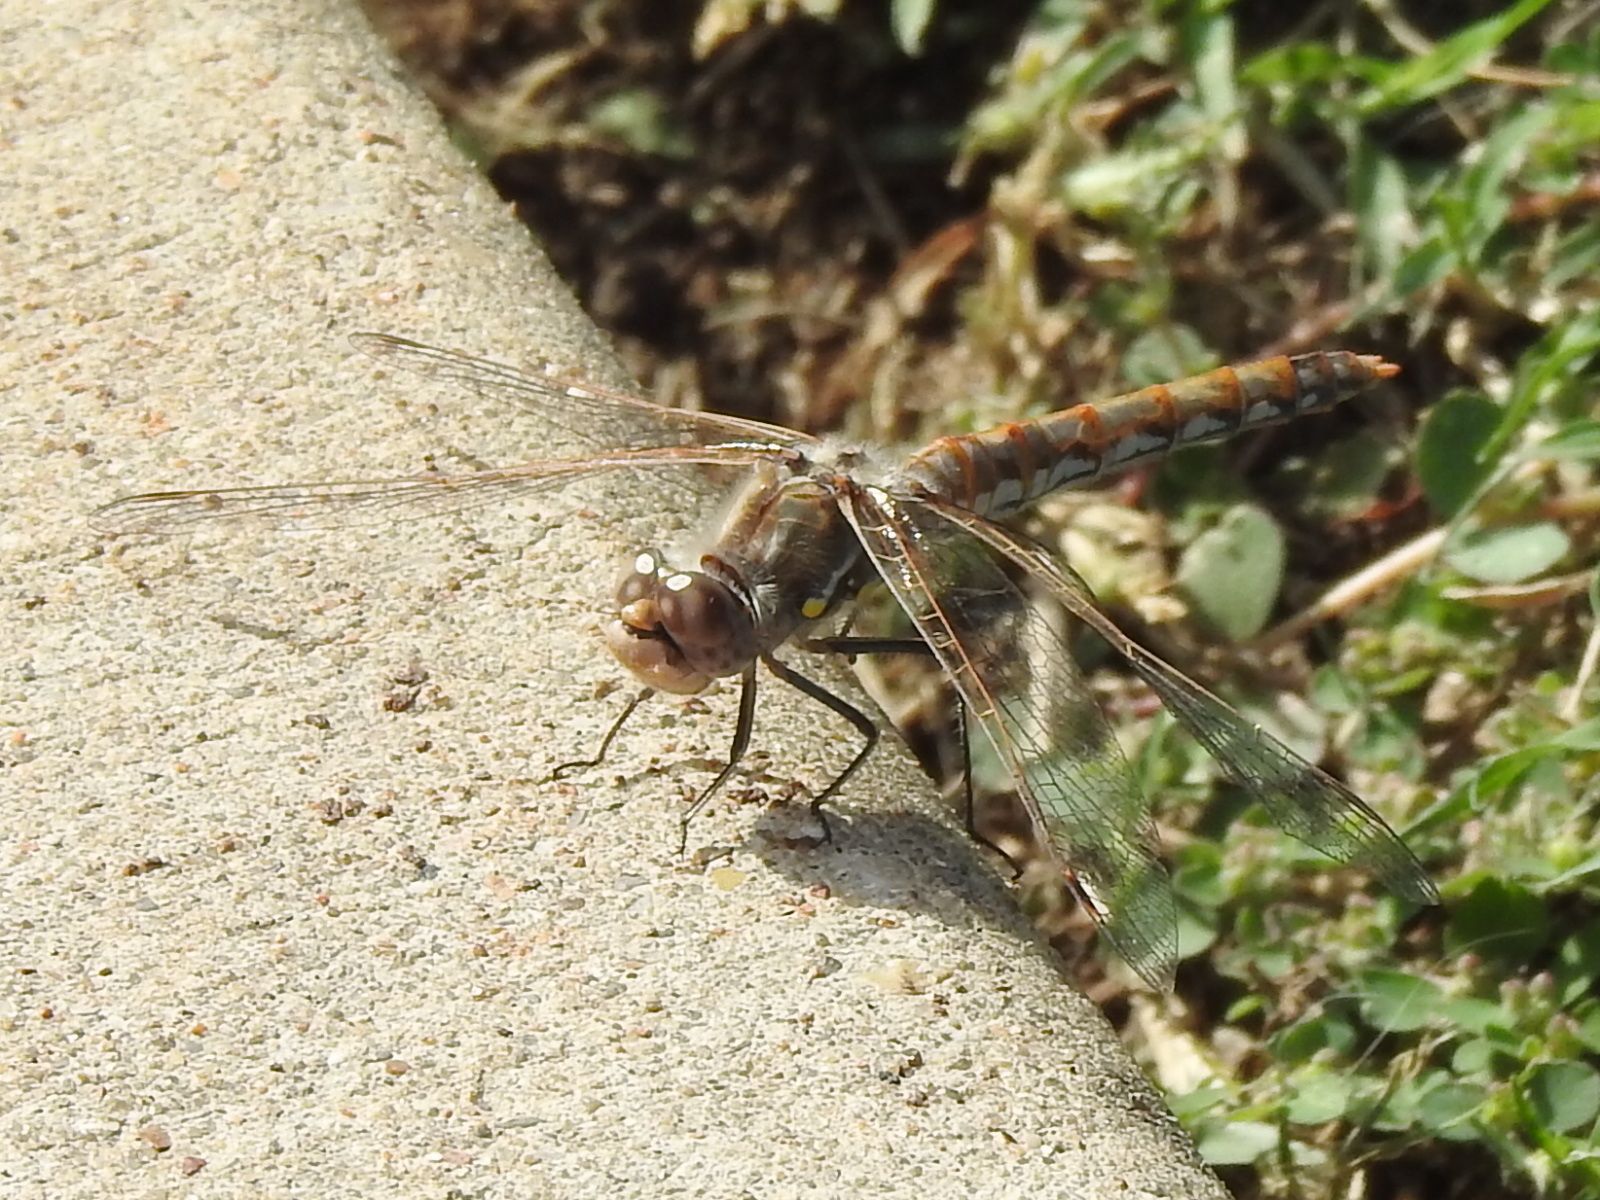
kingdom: Animalia
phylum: Arthropoda
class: Insecta
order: Odonata
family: Libellulidae
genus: Sympetrum
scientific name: Sympetrum corruptum
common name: Variegated meadowhawk
